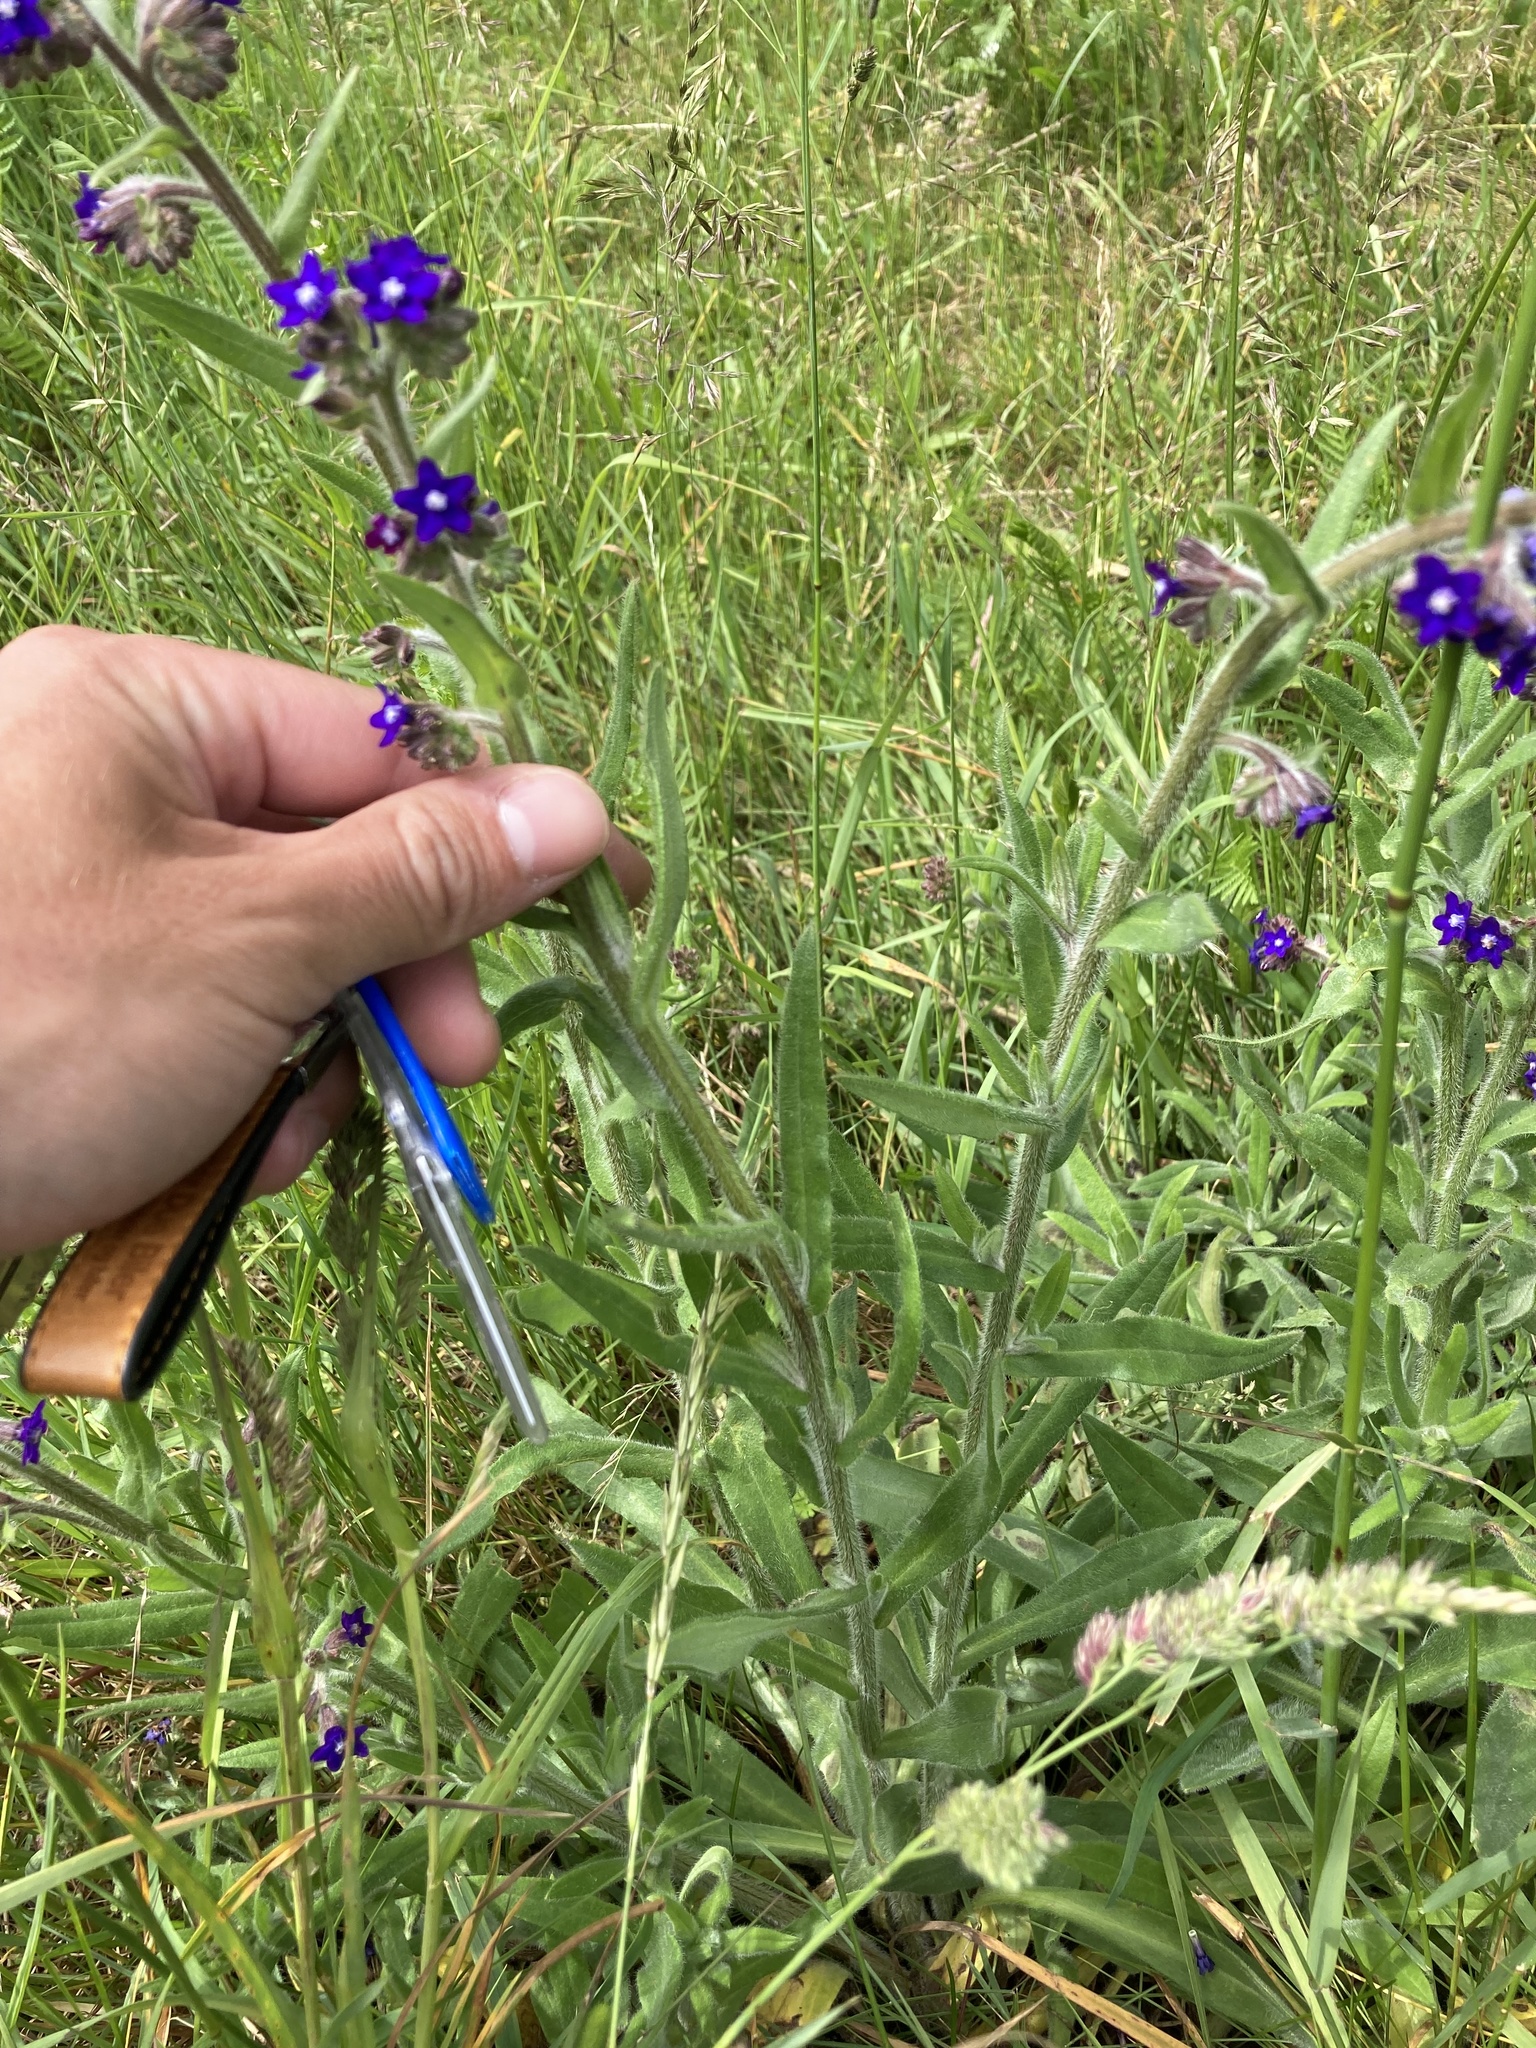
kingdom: Plantae
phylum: Tracheophyta
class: Magnoliopsida
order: Boraginales
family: Boraginaceae
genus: Anchusa
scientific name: Anchusa officinalis
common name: Alkanet
